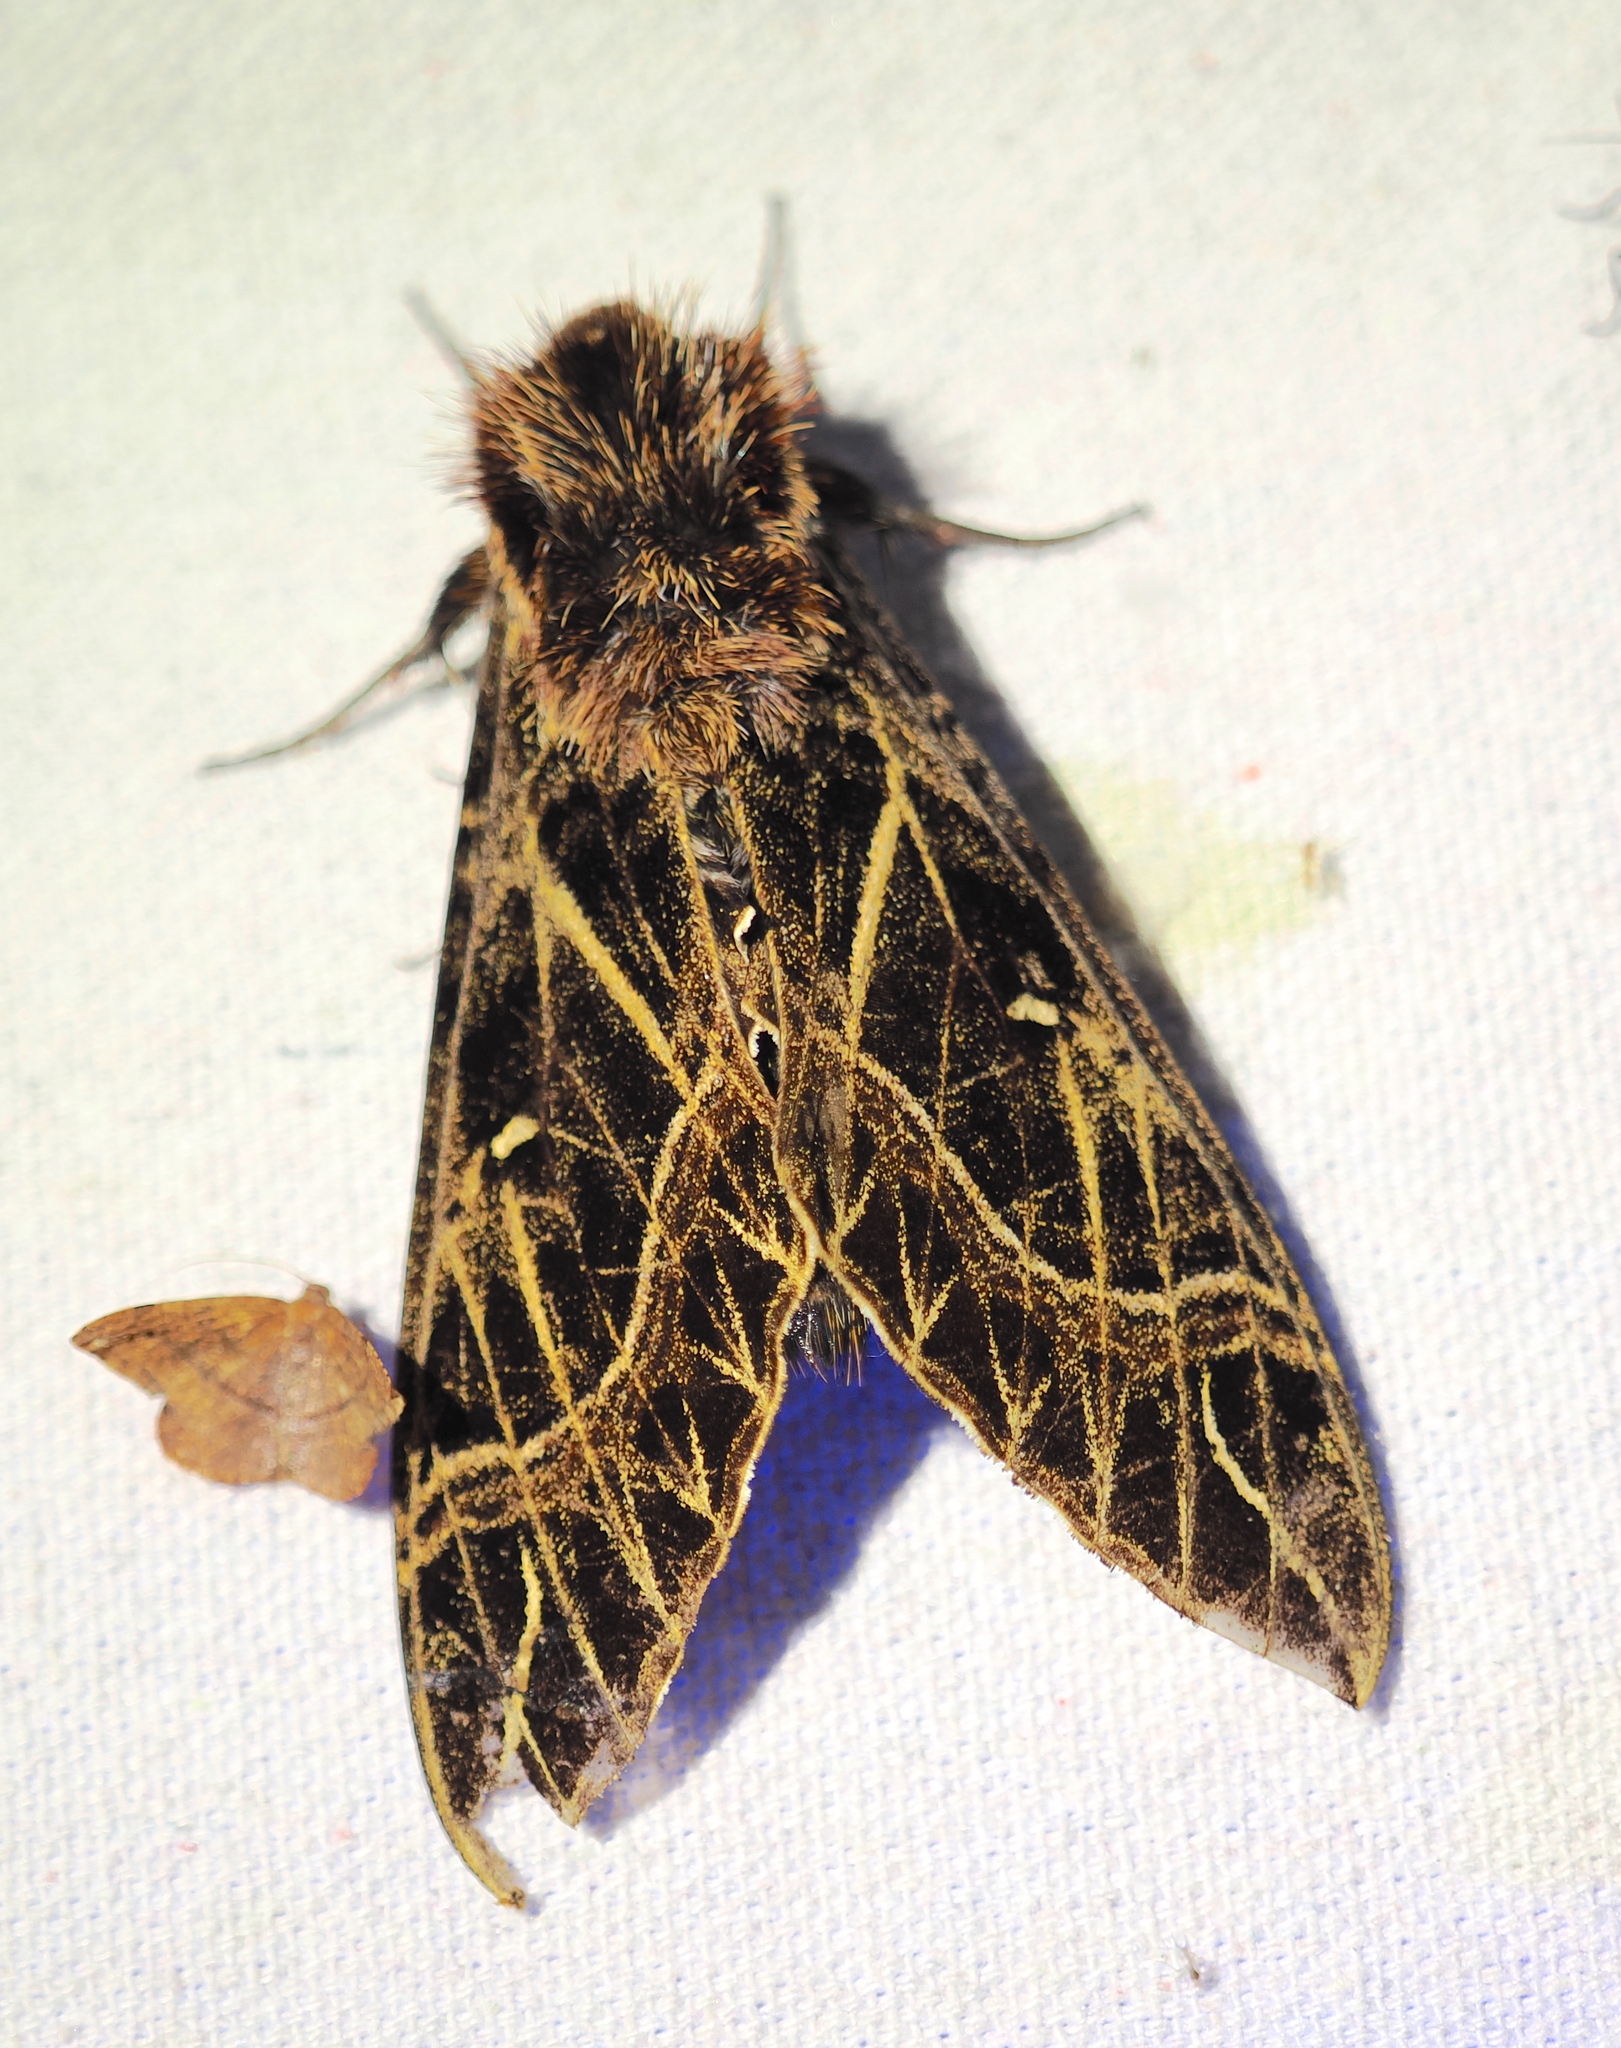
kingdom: Animalia
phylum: Arthropoda
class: Insecta
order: Lepidoptera
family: Sphingidae
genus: Euryglottis
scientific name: Euryglottis aper
